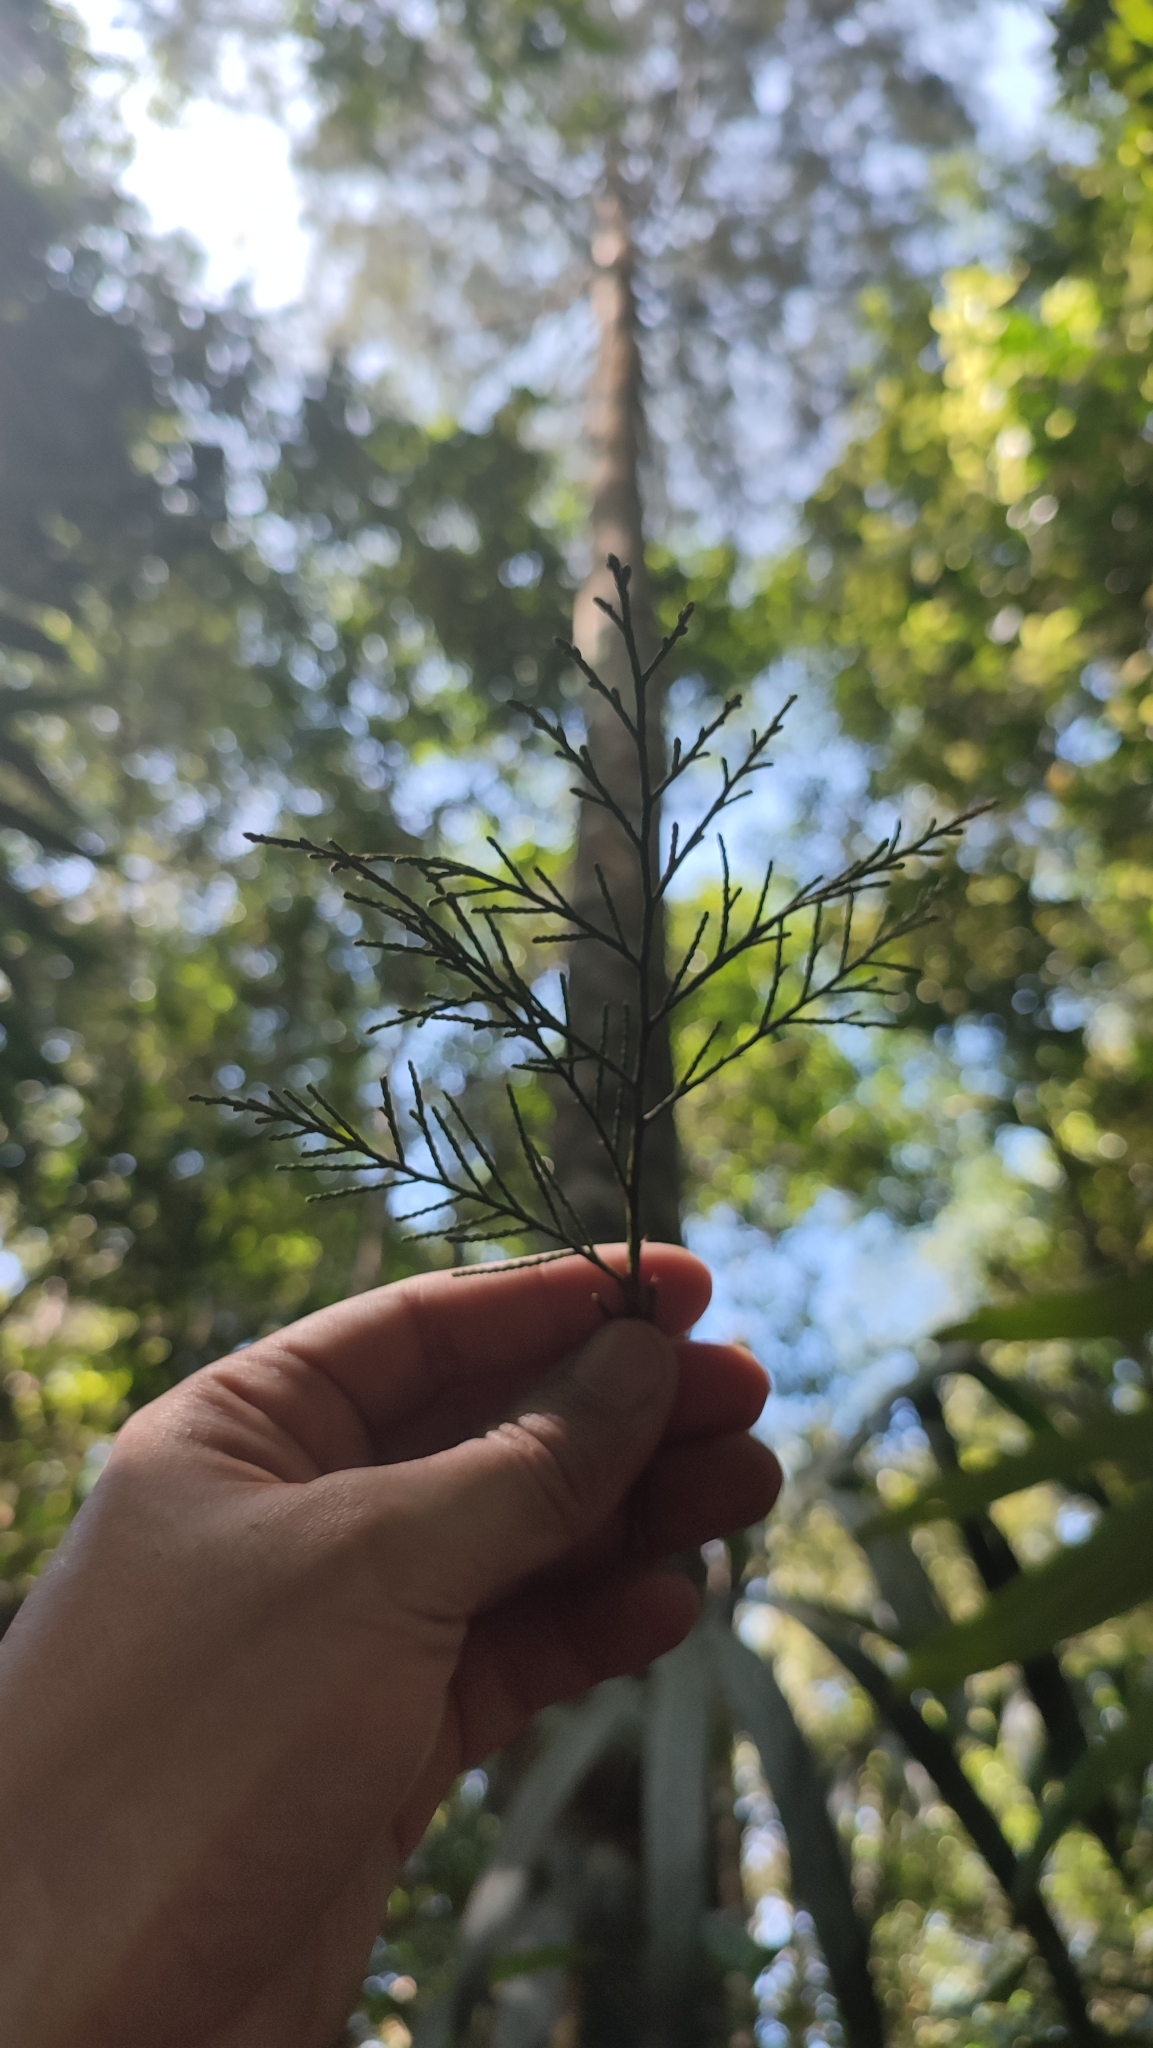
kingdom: Plantae
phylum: Tracheophyta
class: Pinopsida
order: Pinales
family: Podocarpaceae
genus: Dacrycarpus
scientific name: Dacrycarpus imbricatus
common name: Pine
